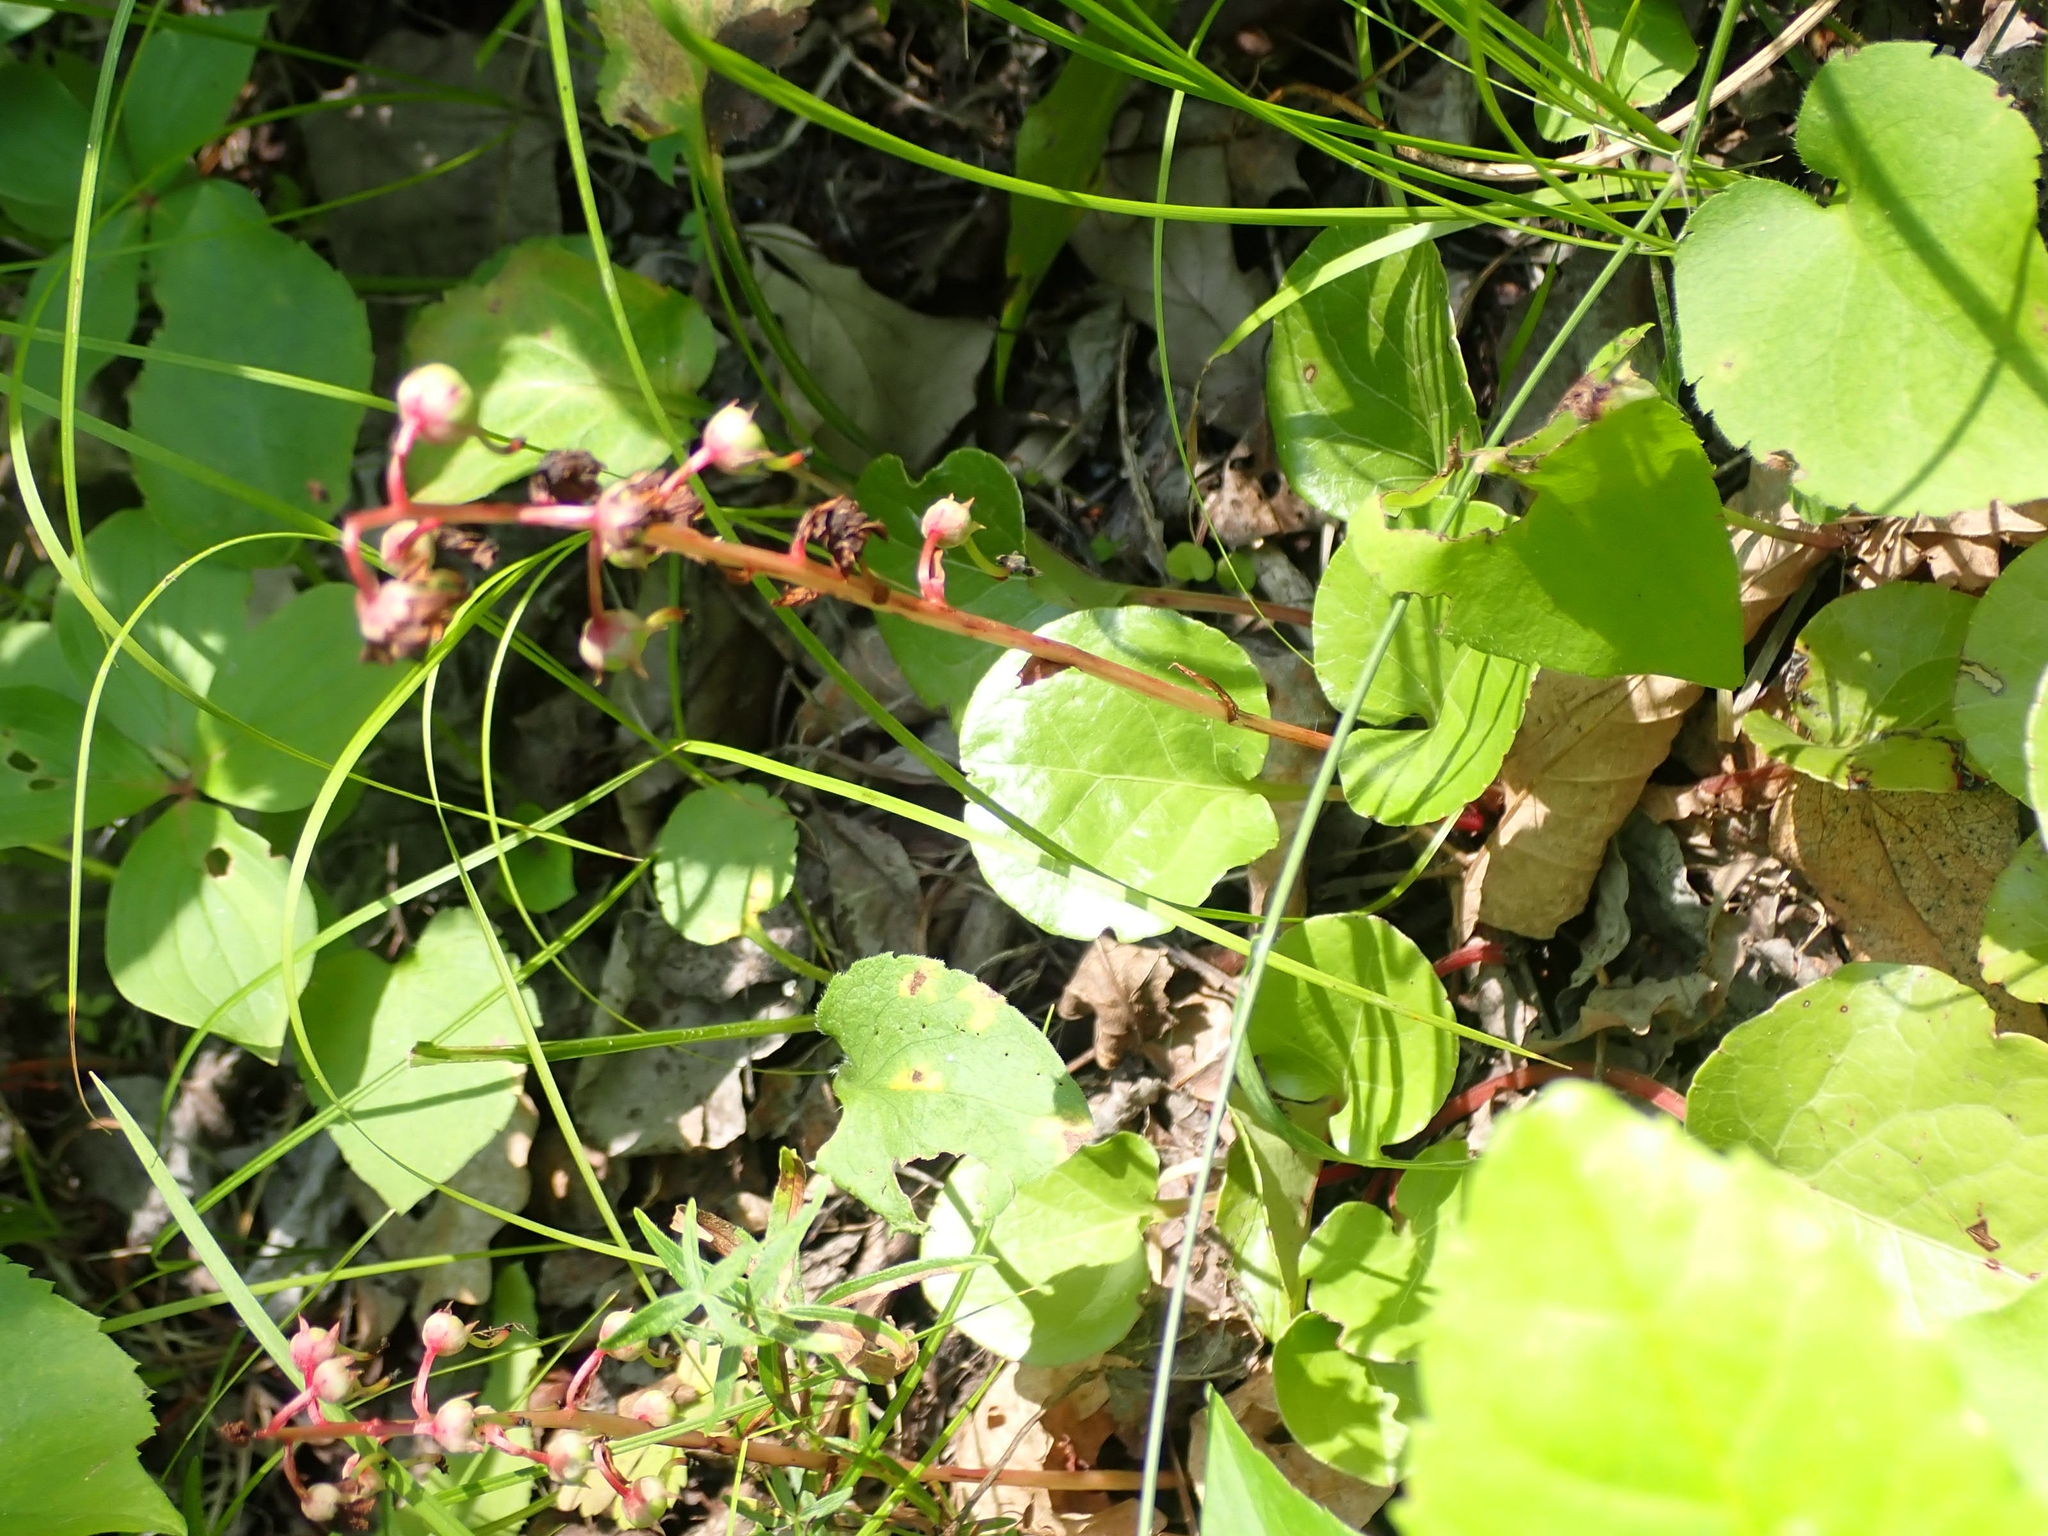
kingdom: Plantae
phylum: Tracheophyta
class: Magnoliopsida
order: Ericales
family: Ericaceae
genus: Pyrola
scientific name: Pyrola asarifolia
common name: Bog wintergreen
